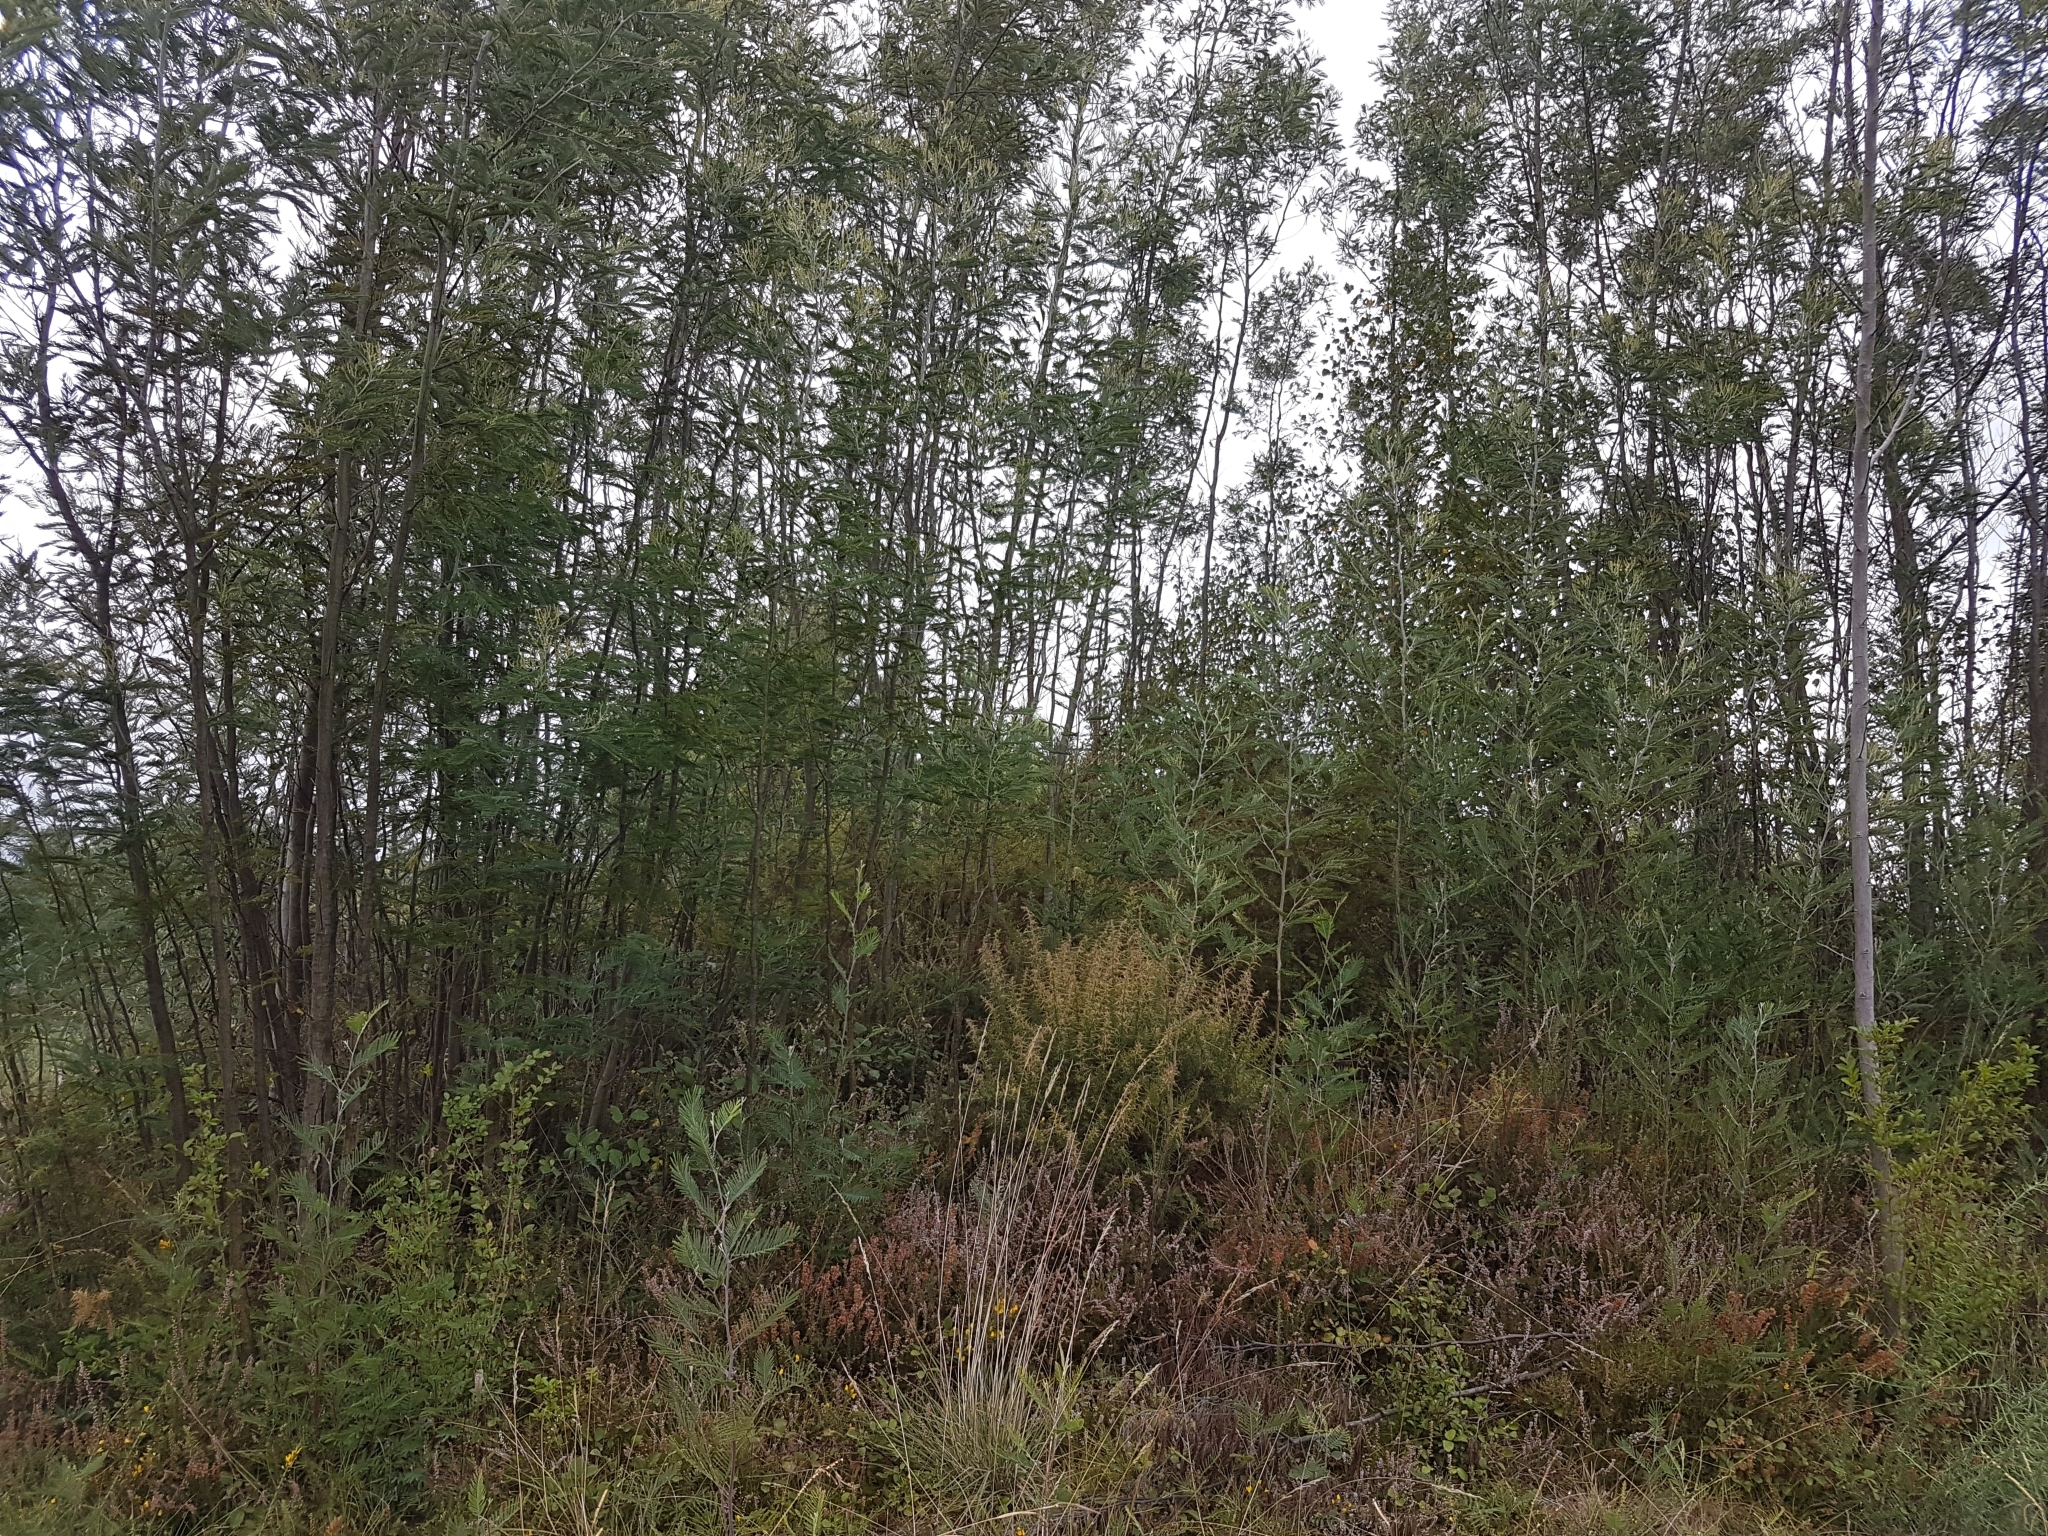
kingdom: Plantae
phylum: Tracheophyta
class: Magnoliopsida
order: Fabales
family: Fabaceae
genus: Acacia
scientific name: Acacia dealbata
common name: Silver wattle
